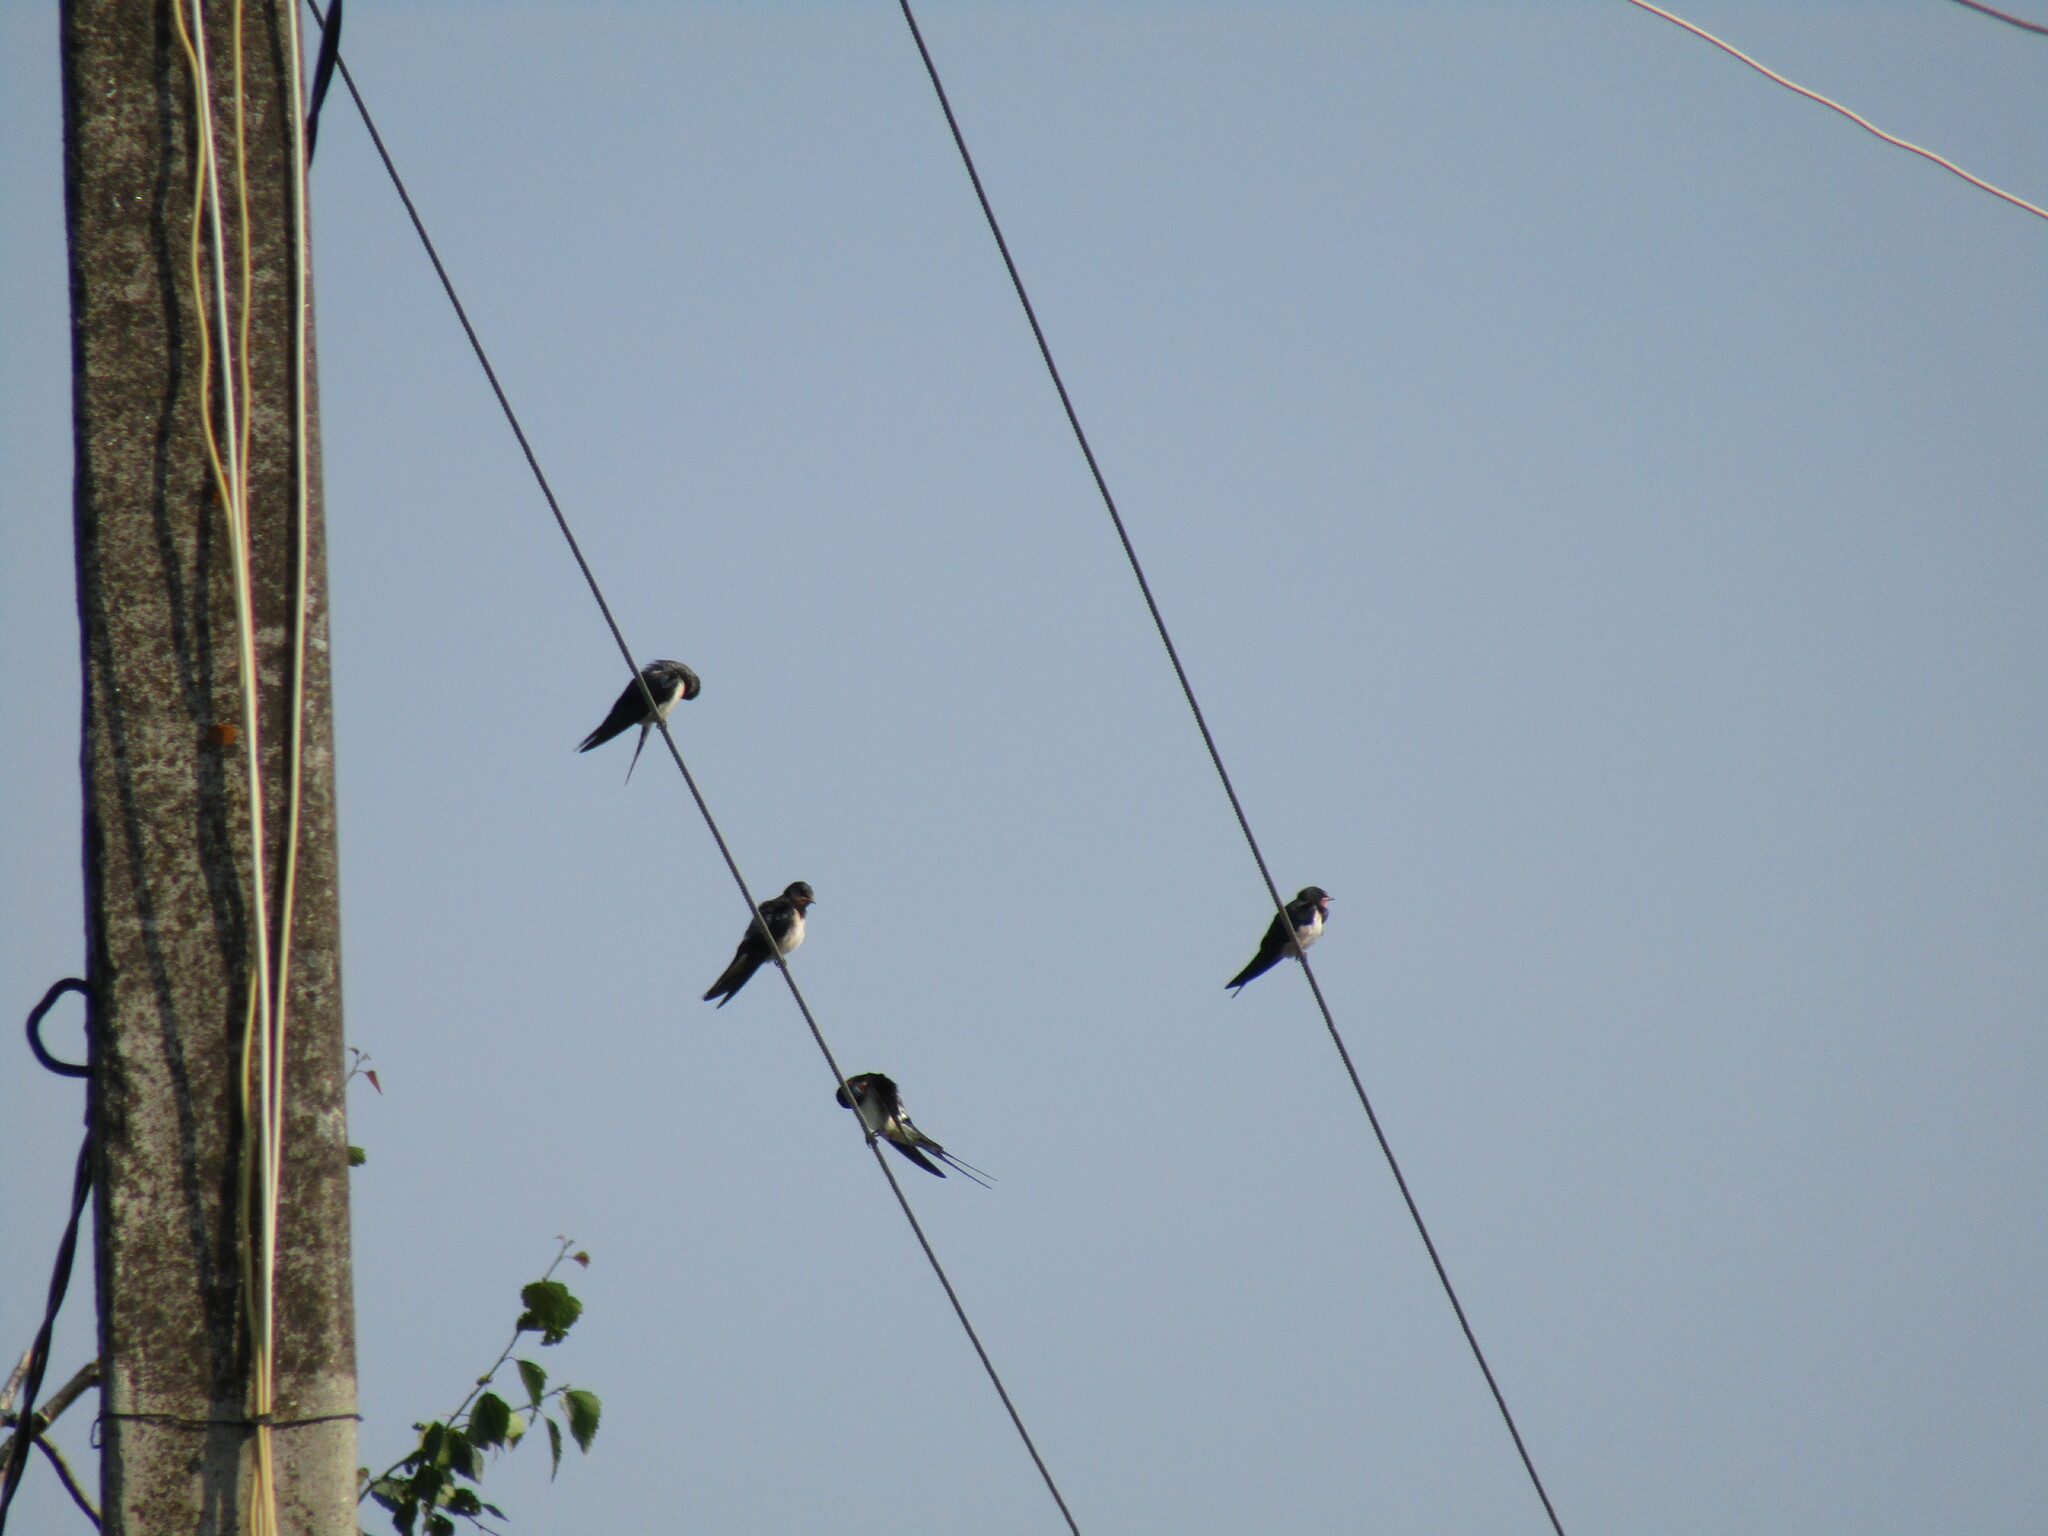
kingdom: Animalia
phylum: Chordata
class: Aves
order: Passeriformes
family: Hirundinidae
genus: Hirundo
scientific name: Hirundo rustica
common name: Barn swallow
